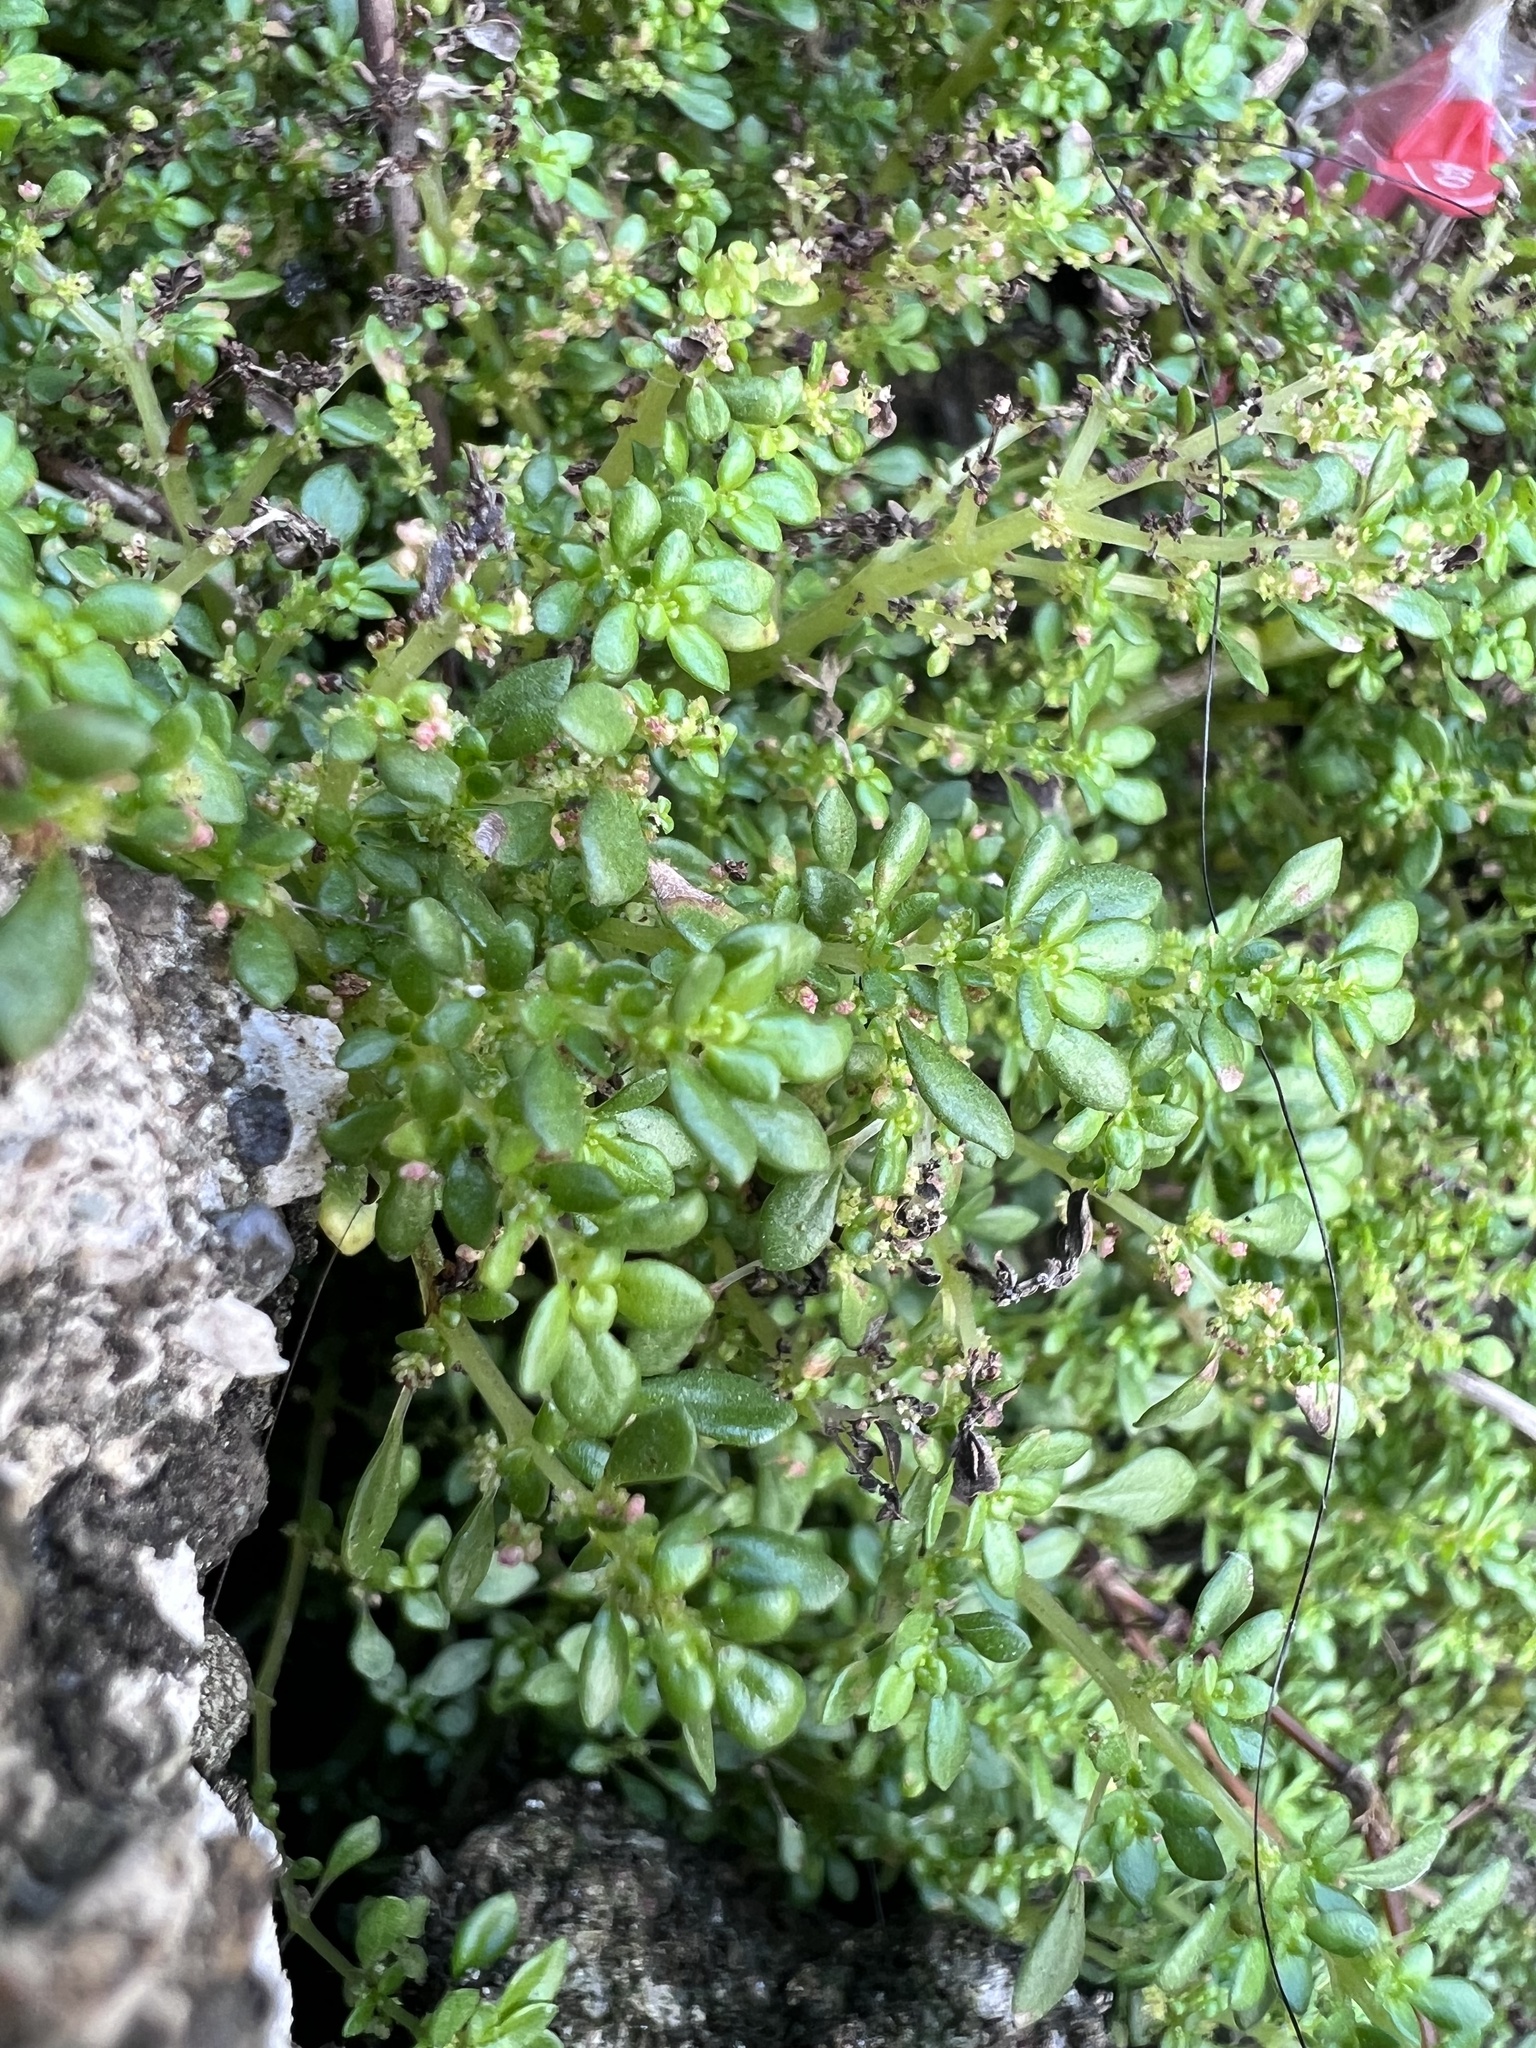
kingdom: Plantae
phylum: Tracheophyta
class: Magnoliopsida
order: Rosales
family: Urticaceae
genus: Pilea
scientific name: Pilea microphylla
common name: Artillery-plant
